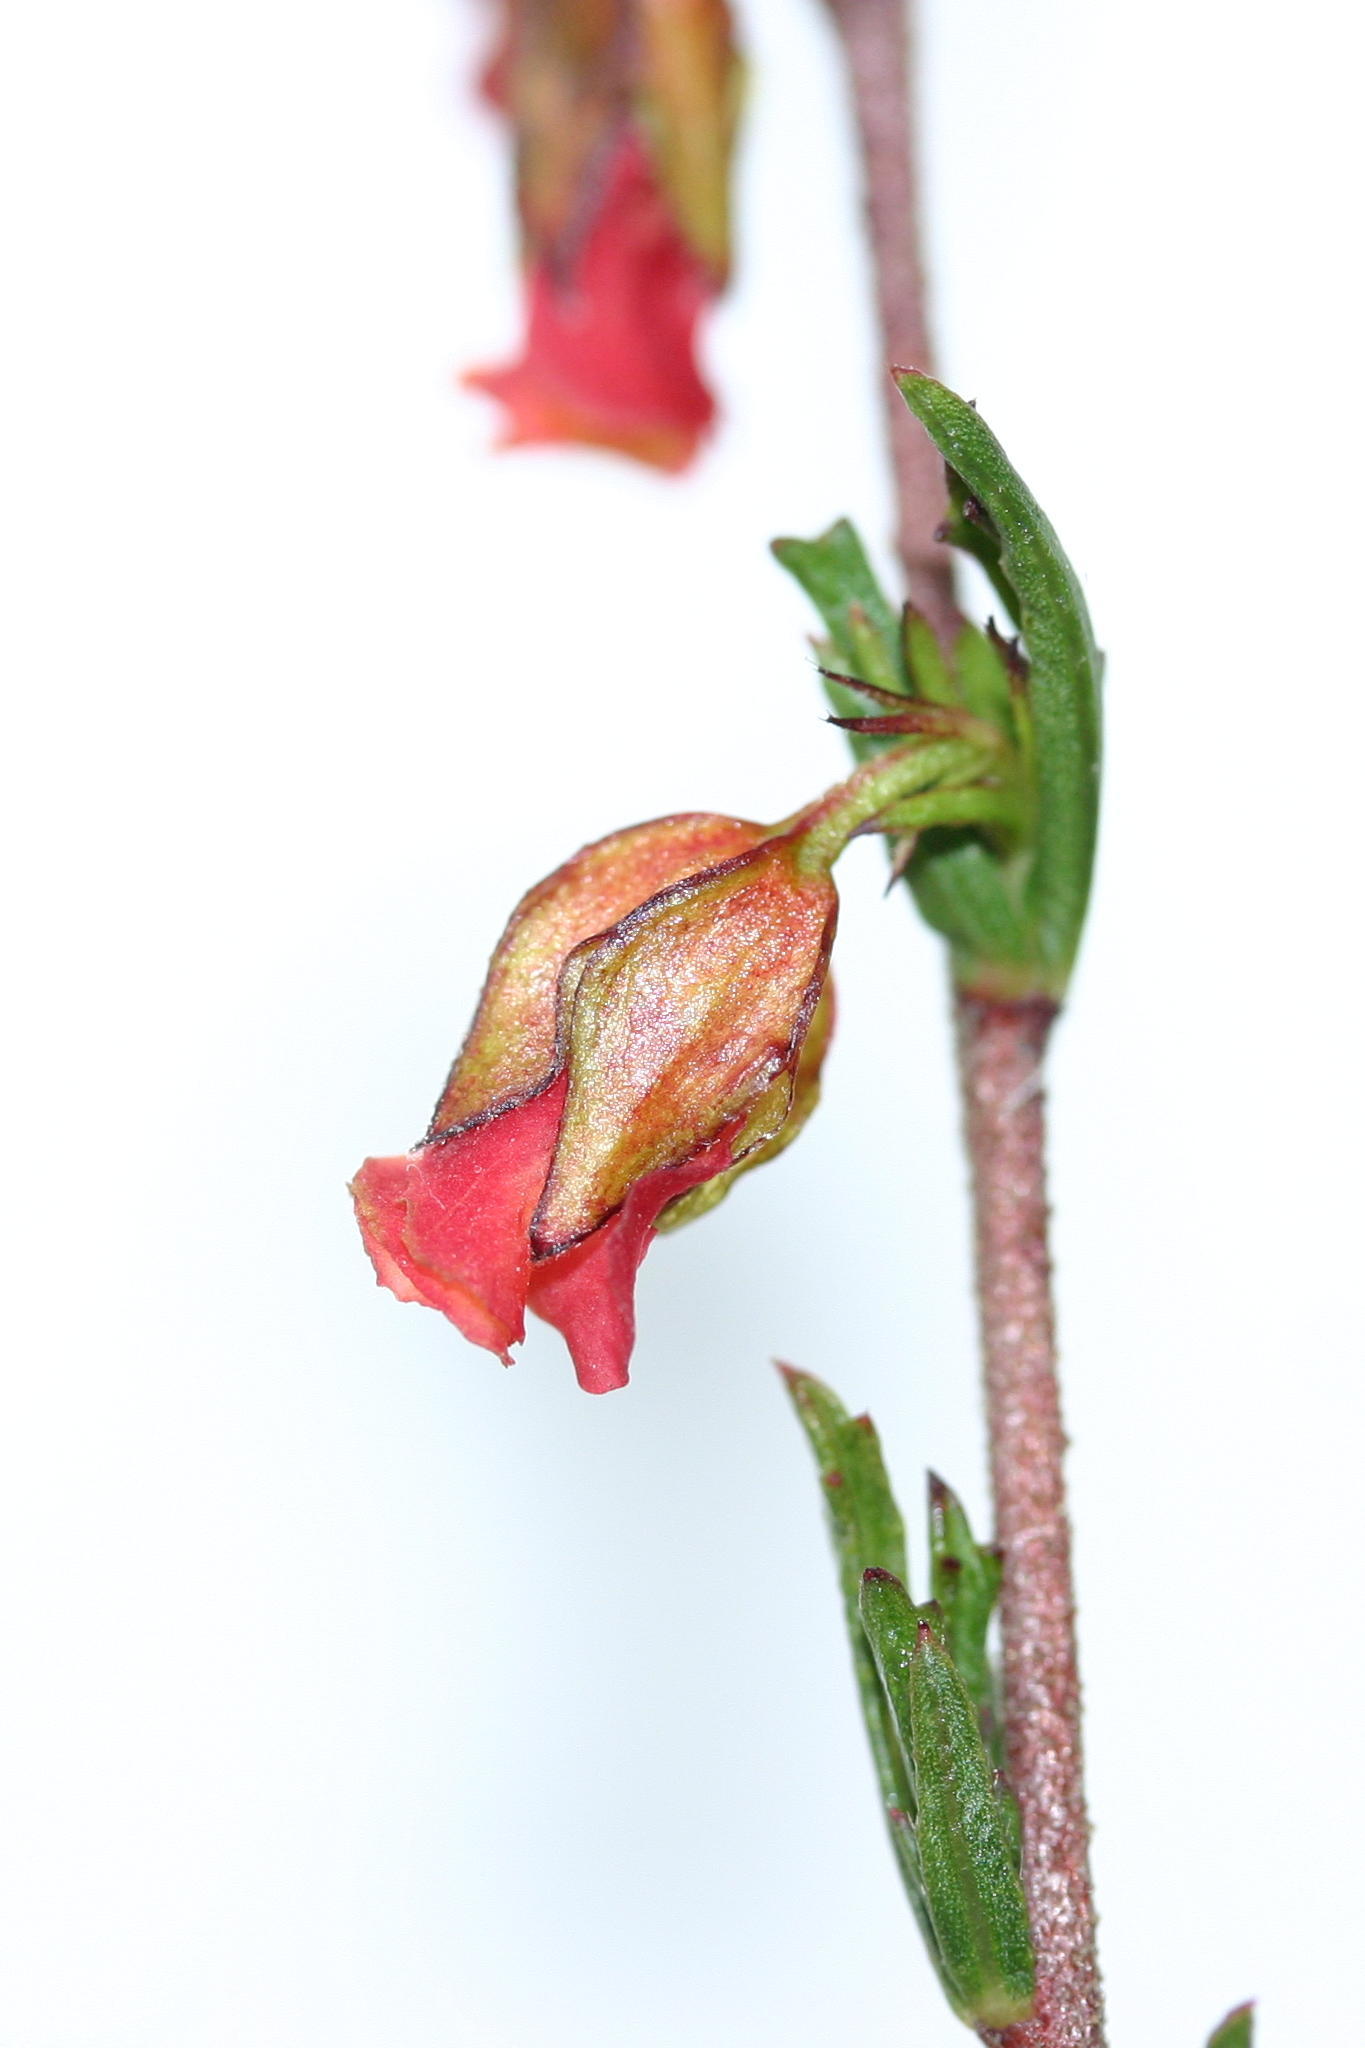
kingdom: Plantae
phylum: Tracheophyta
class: Magnoliopsida
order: Malvales
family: Malvaceae
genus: Hermannia
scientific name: Hermannia angularis
